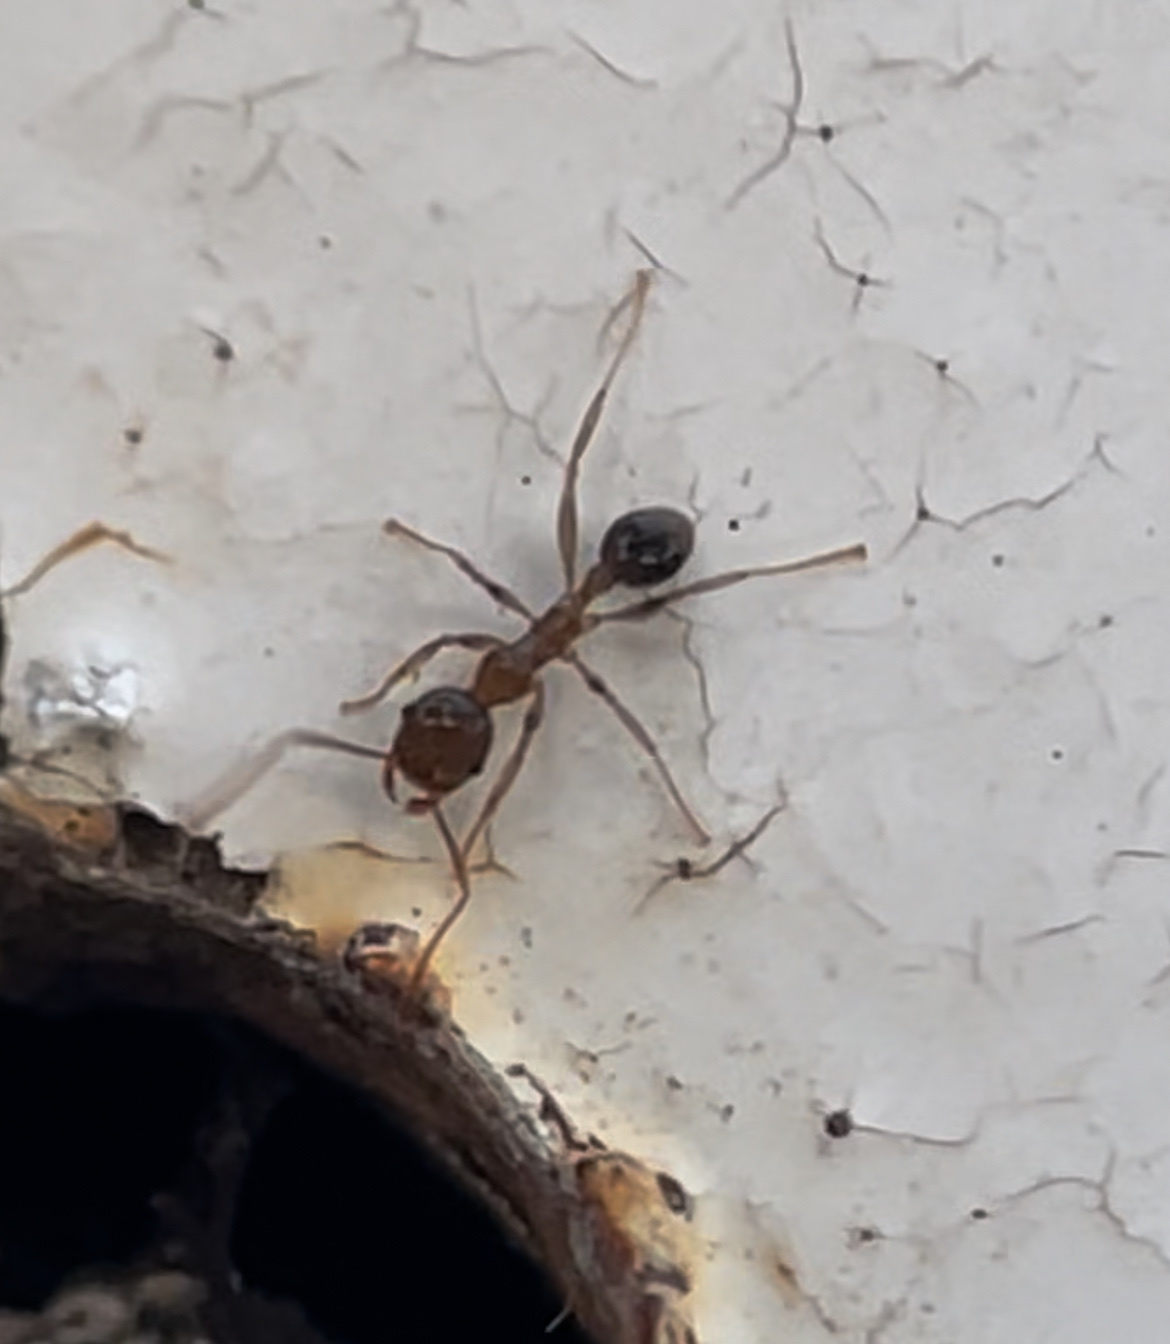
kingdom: Animalia
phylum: Arthropoda
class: Insecta
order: Hymenoptera
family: Formicidae
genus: Pheidole
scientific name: Pheidole megacephala
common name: Bigheaded ant
